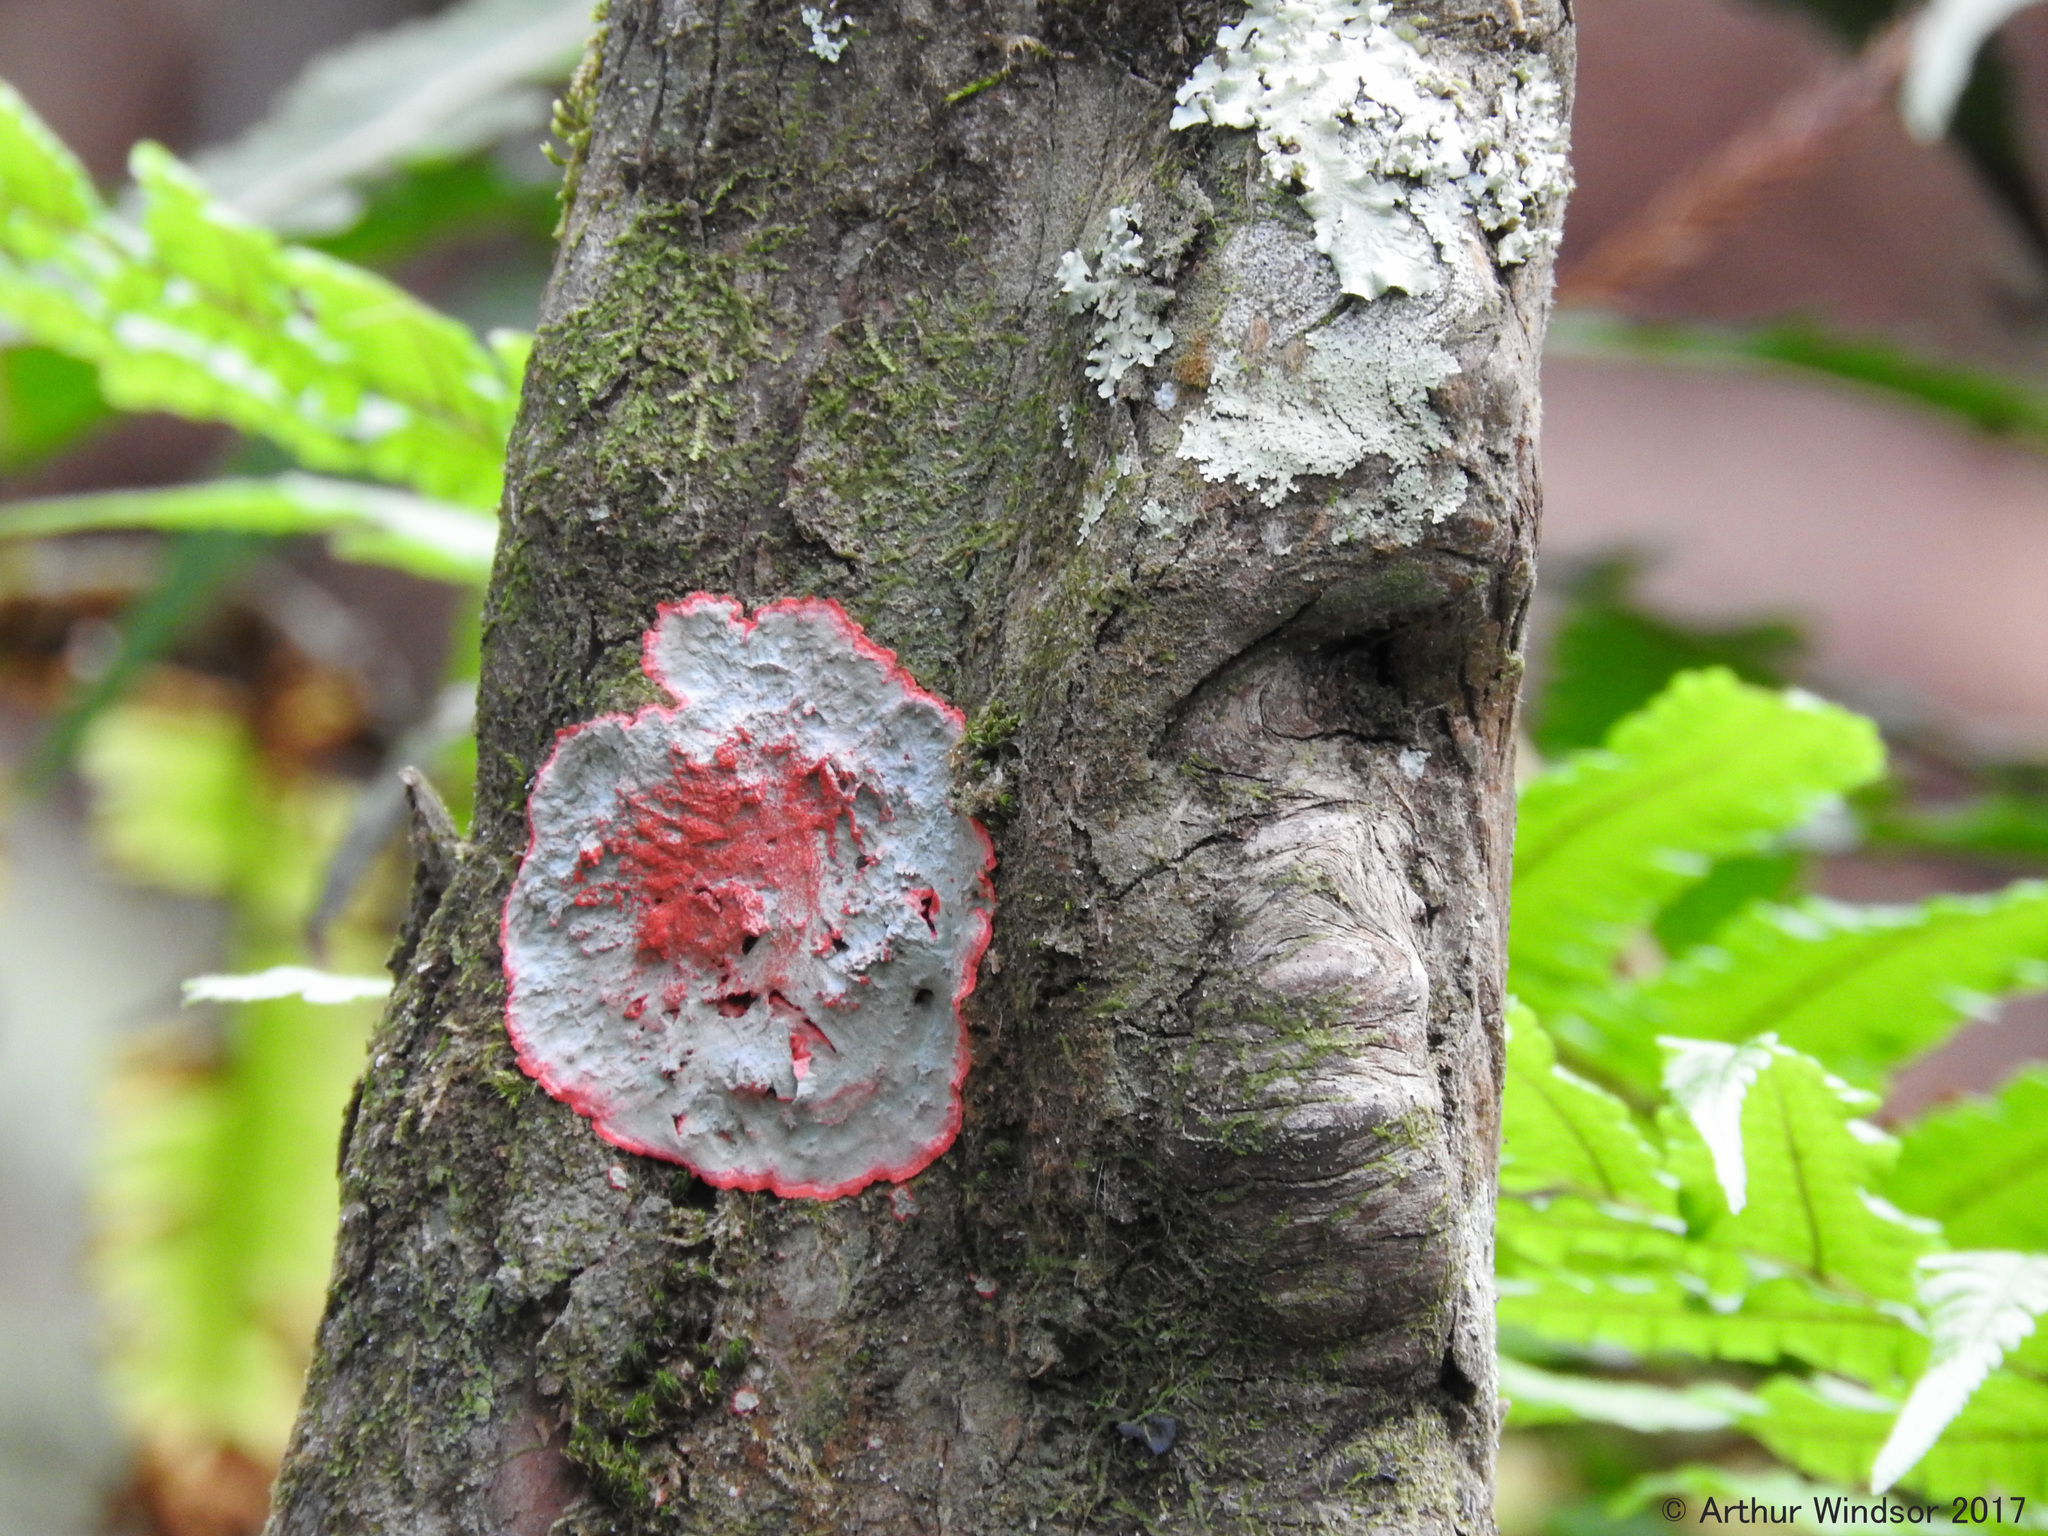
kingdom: Fungi
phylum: Ascomycota
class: Arthoniomycetes
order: Arthoniales
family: Arthoniaceae
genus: Herpothallon
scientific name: Herpothallon rubrocinctum
